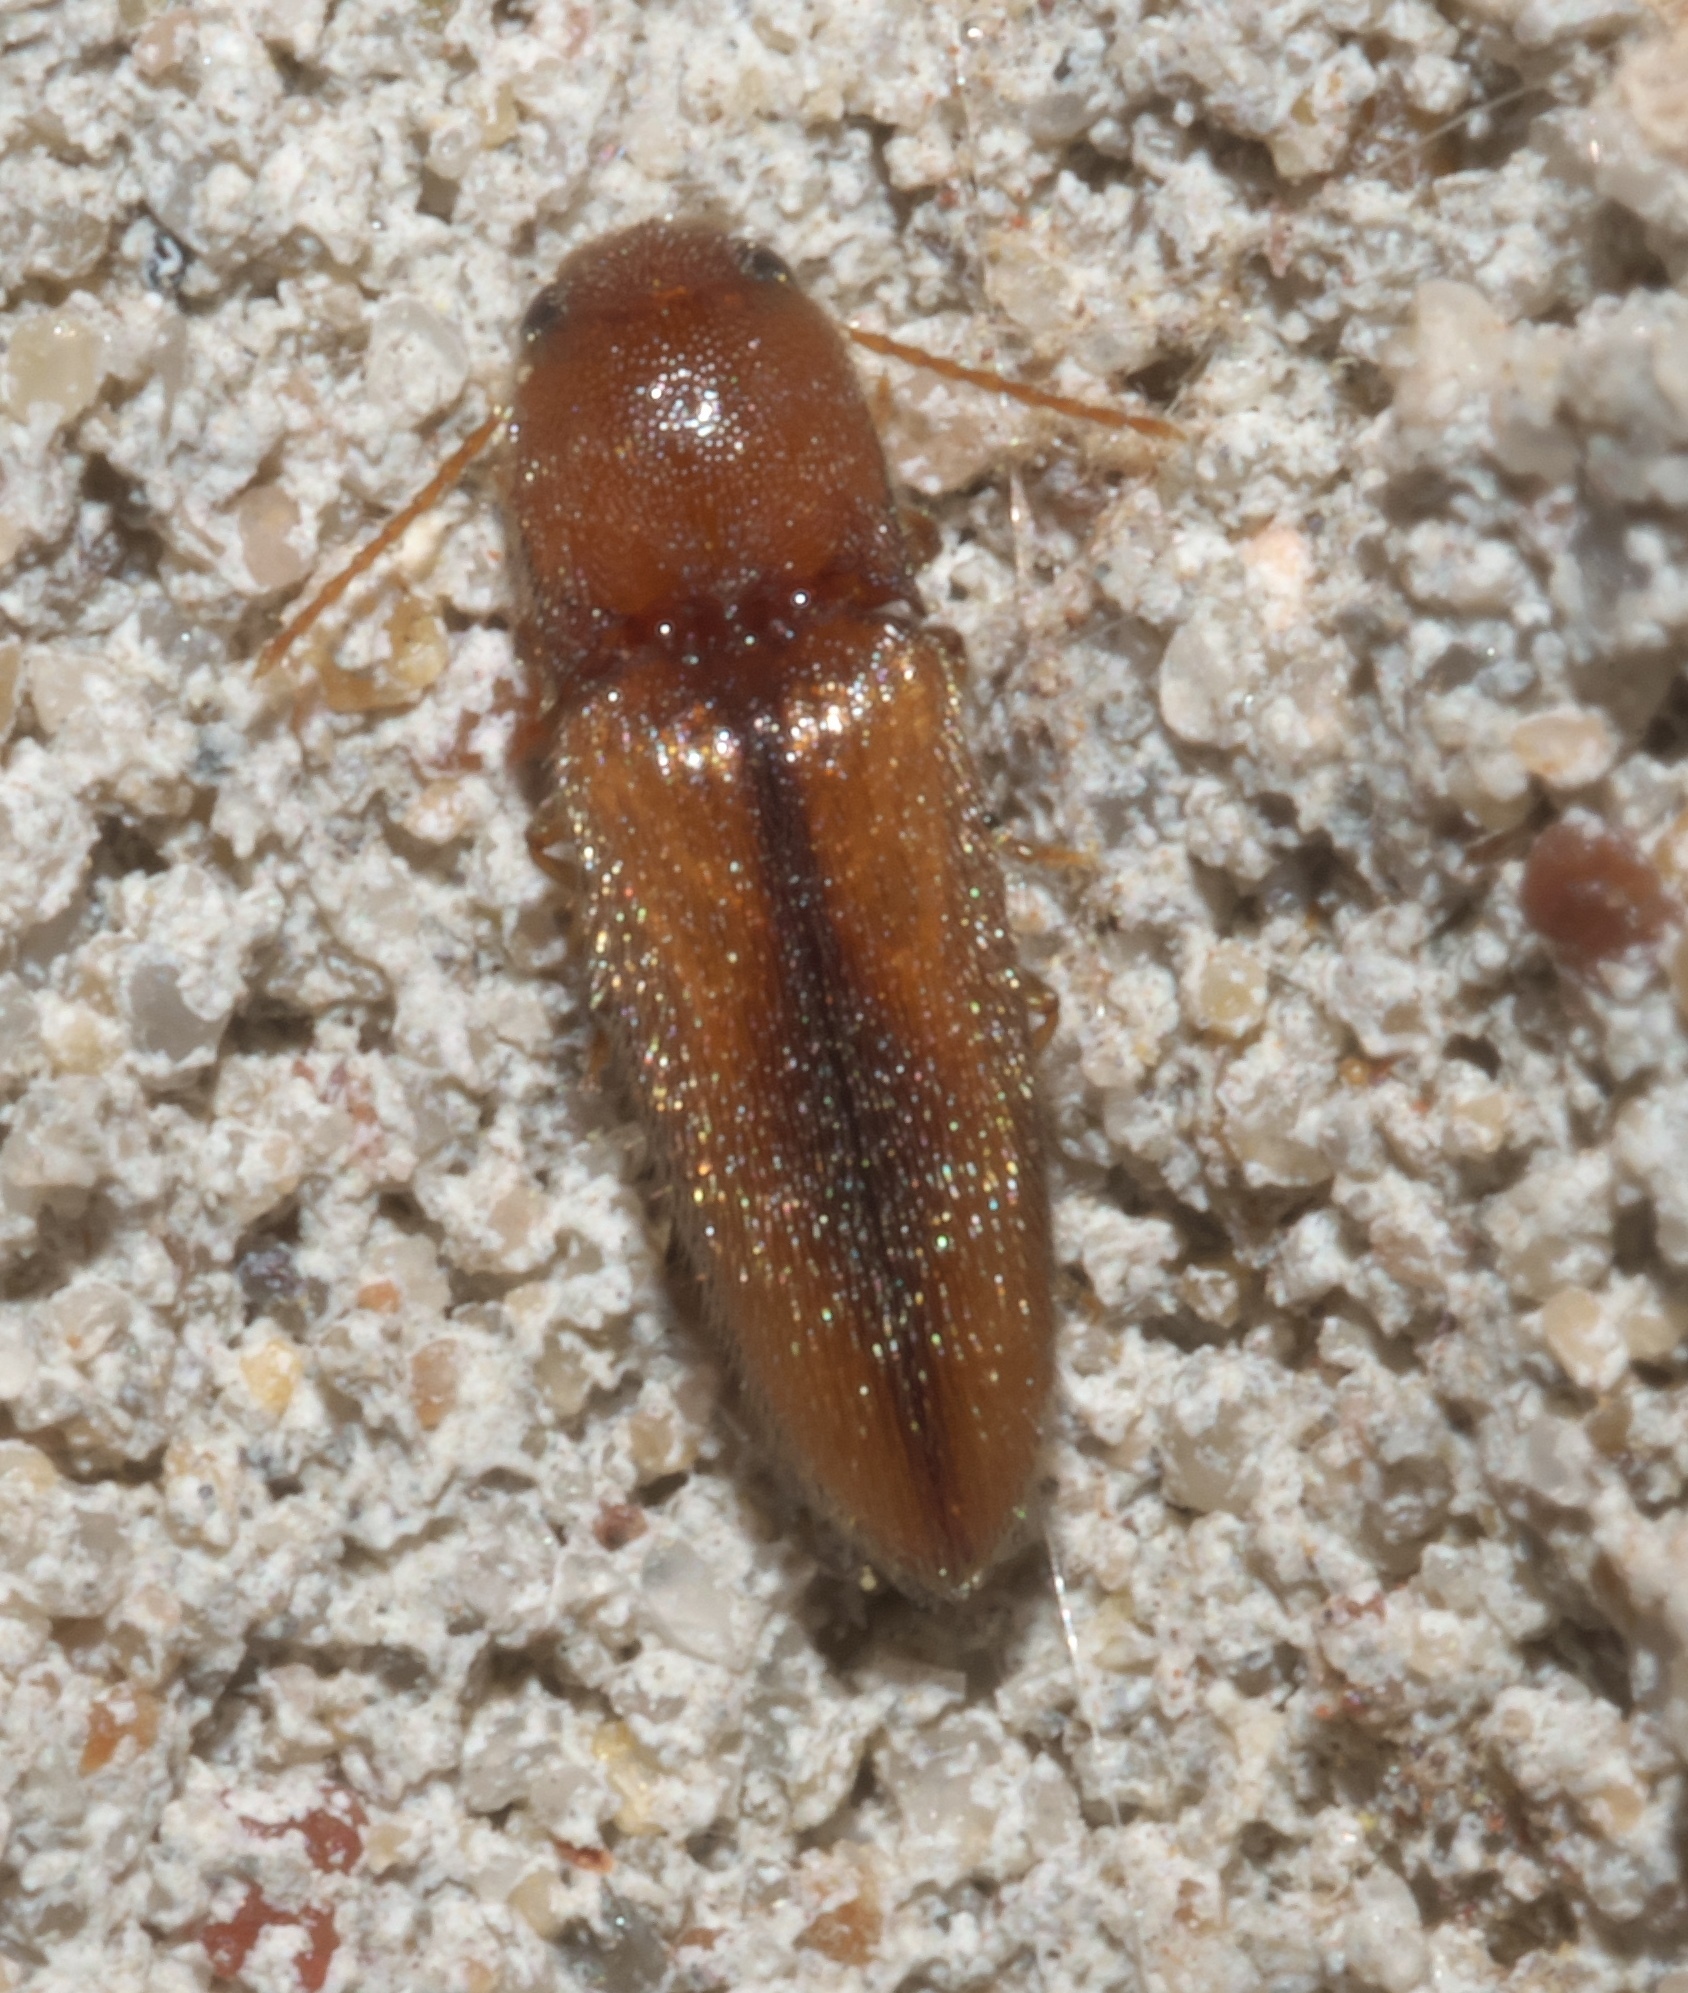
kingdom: Animalia
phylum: Arthropoda
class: Insecta
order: Coleoptera
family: Elateridae
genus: Glyphonyx
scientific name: Glyphonyx
